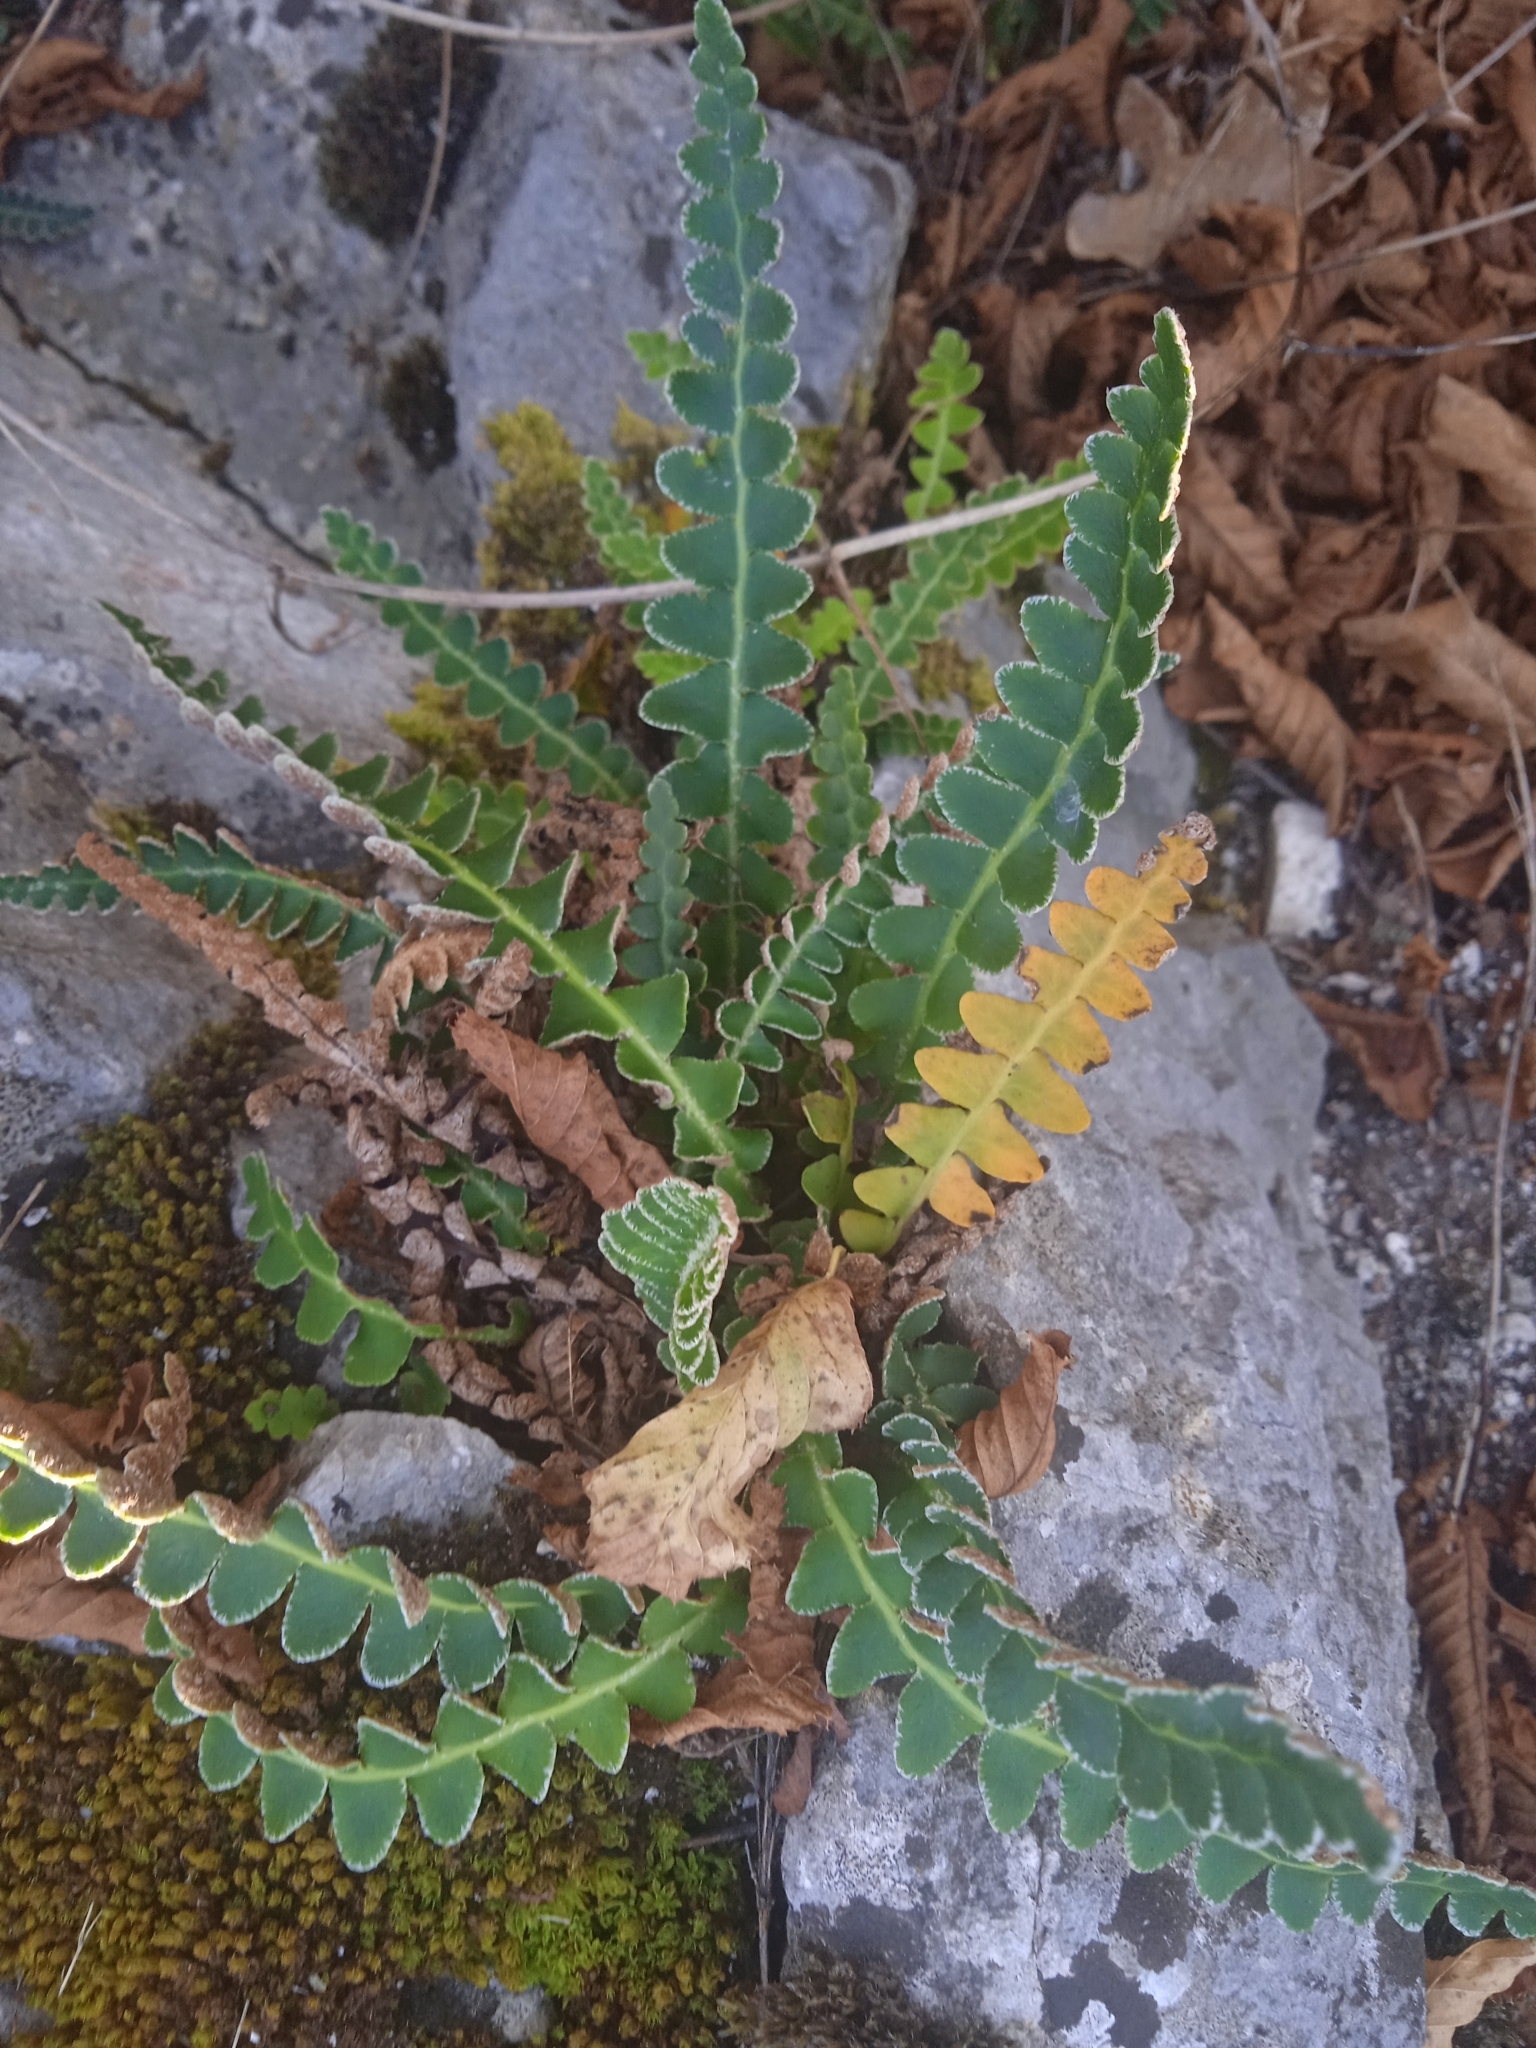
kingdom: Plantae
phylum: Tracheophyta
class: Polypodiopsida
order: Polypodiales
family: Aspleniaceae
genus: Asplenium
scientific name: Asplenium ceterach
